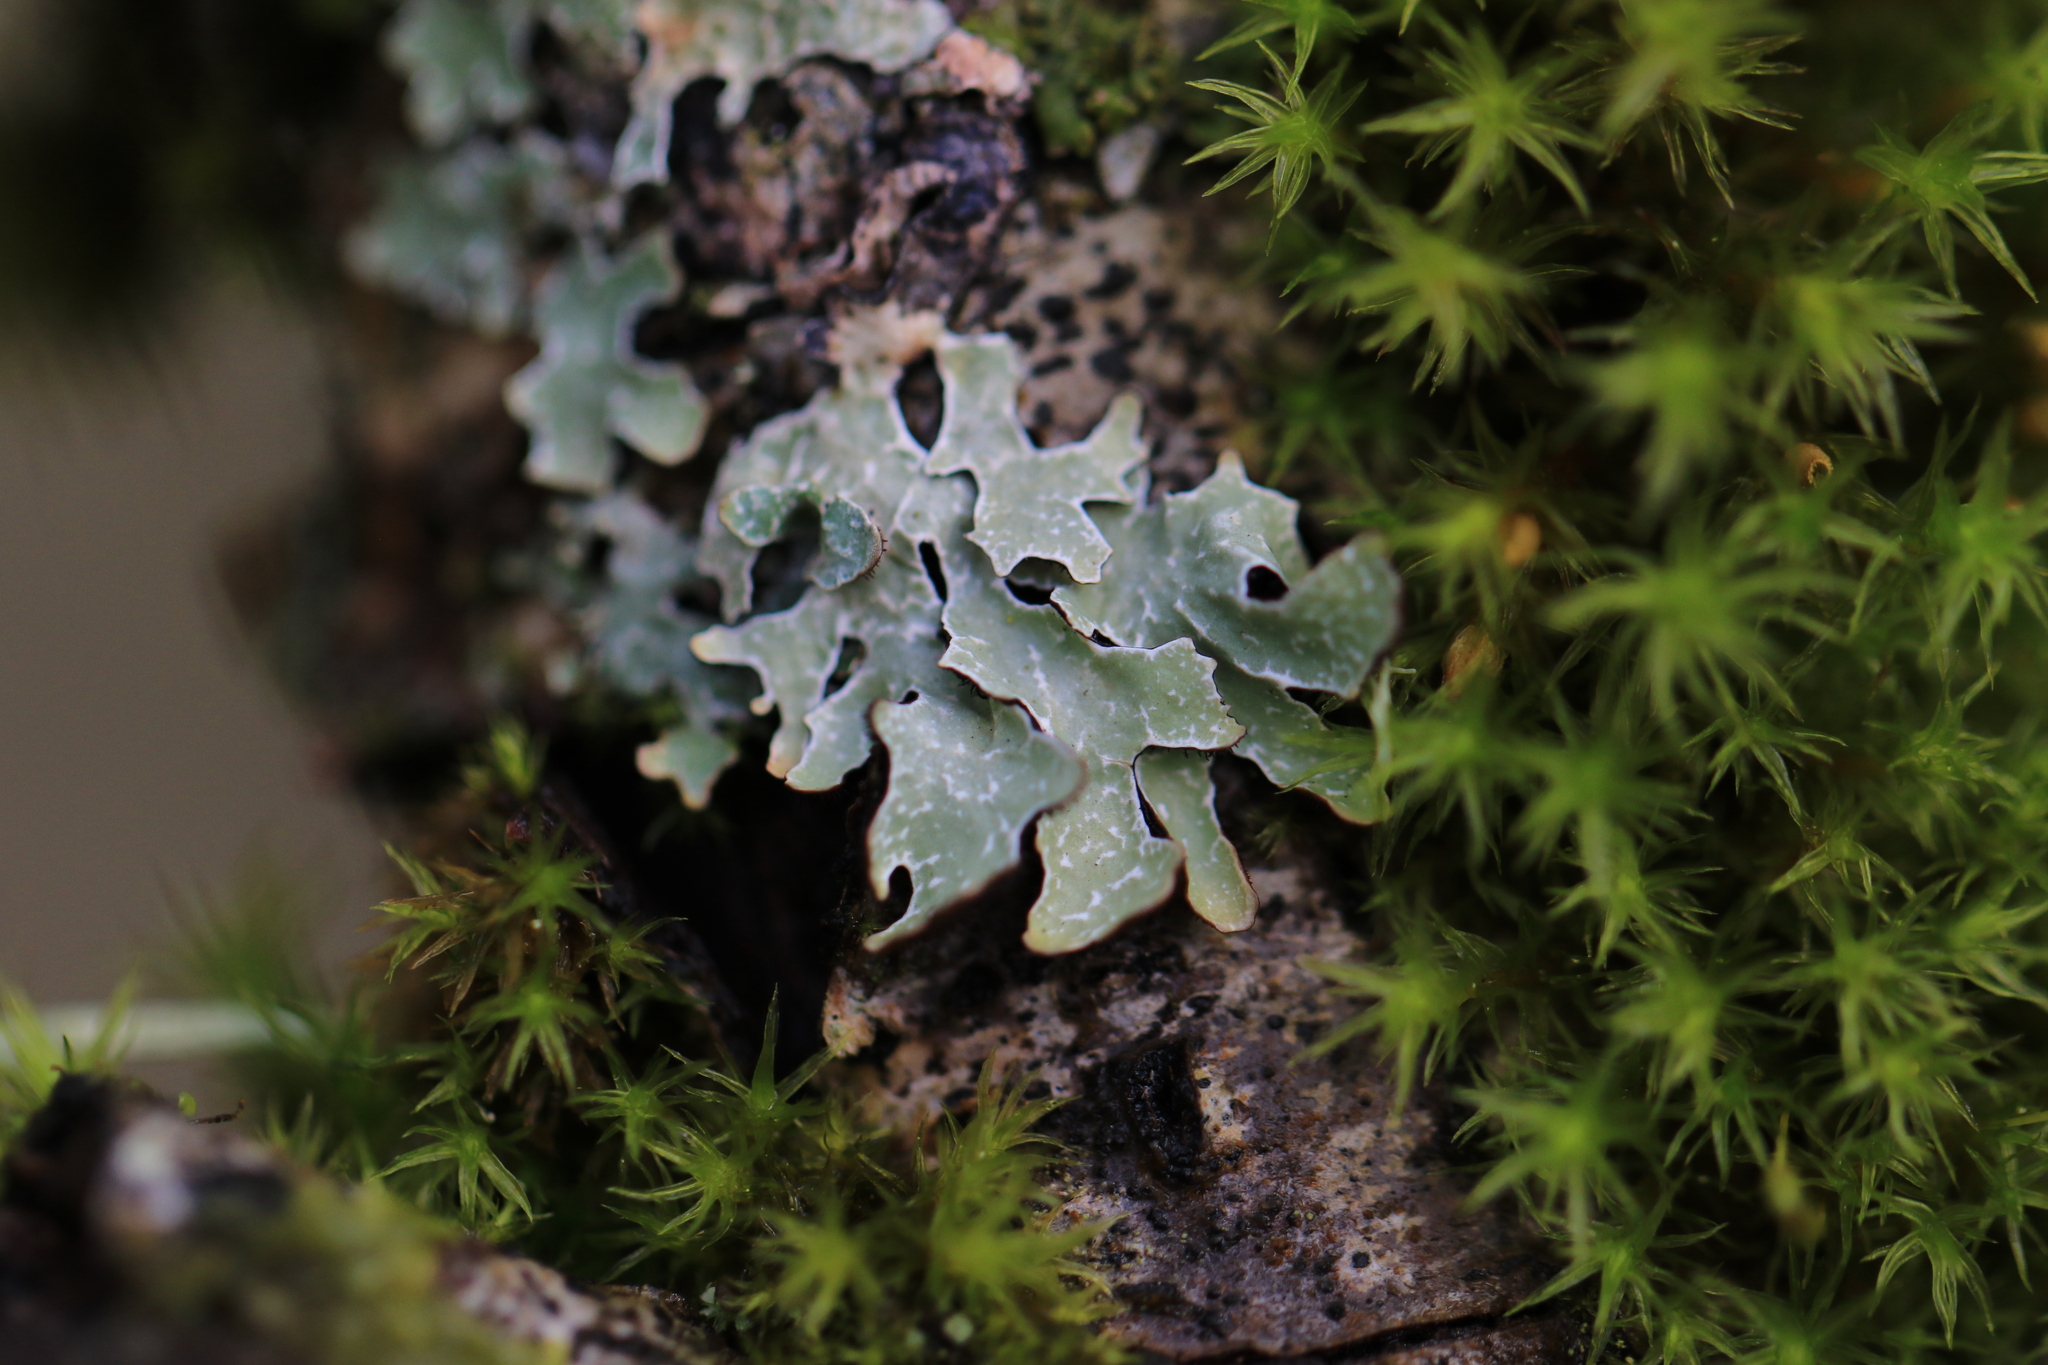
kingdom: Fungi
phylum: Ascomycota
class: Lecanoromycetes
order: Lecanorales
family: Parmeliaceae
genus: Parmelia
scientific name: Parmelia sulcata
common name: Netted shield lichen
